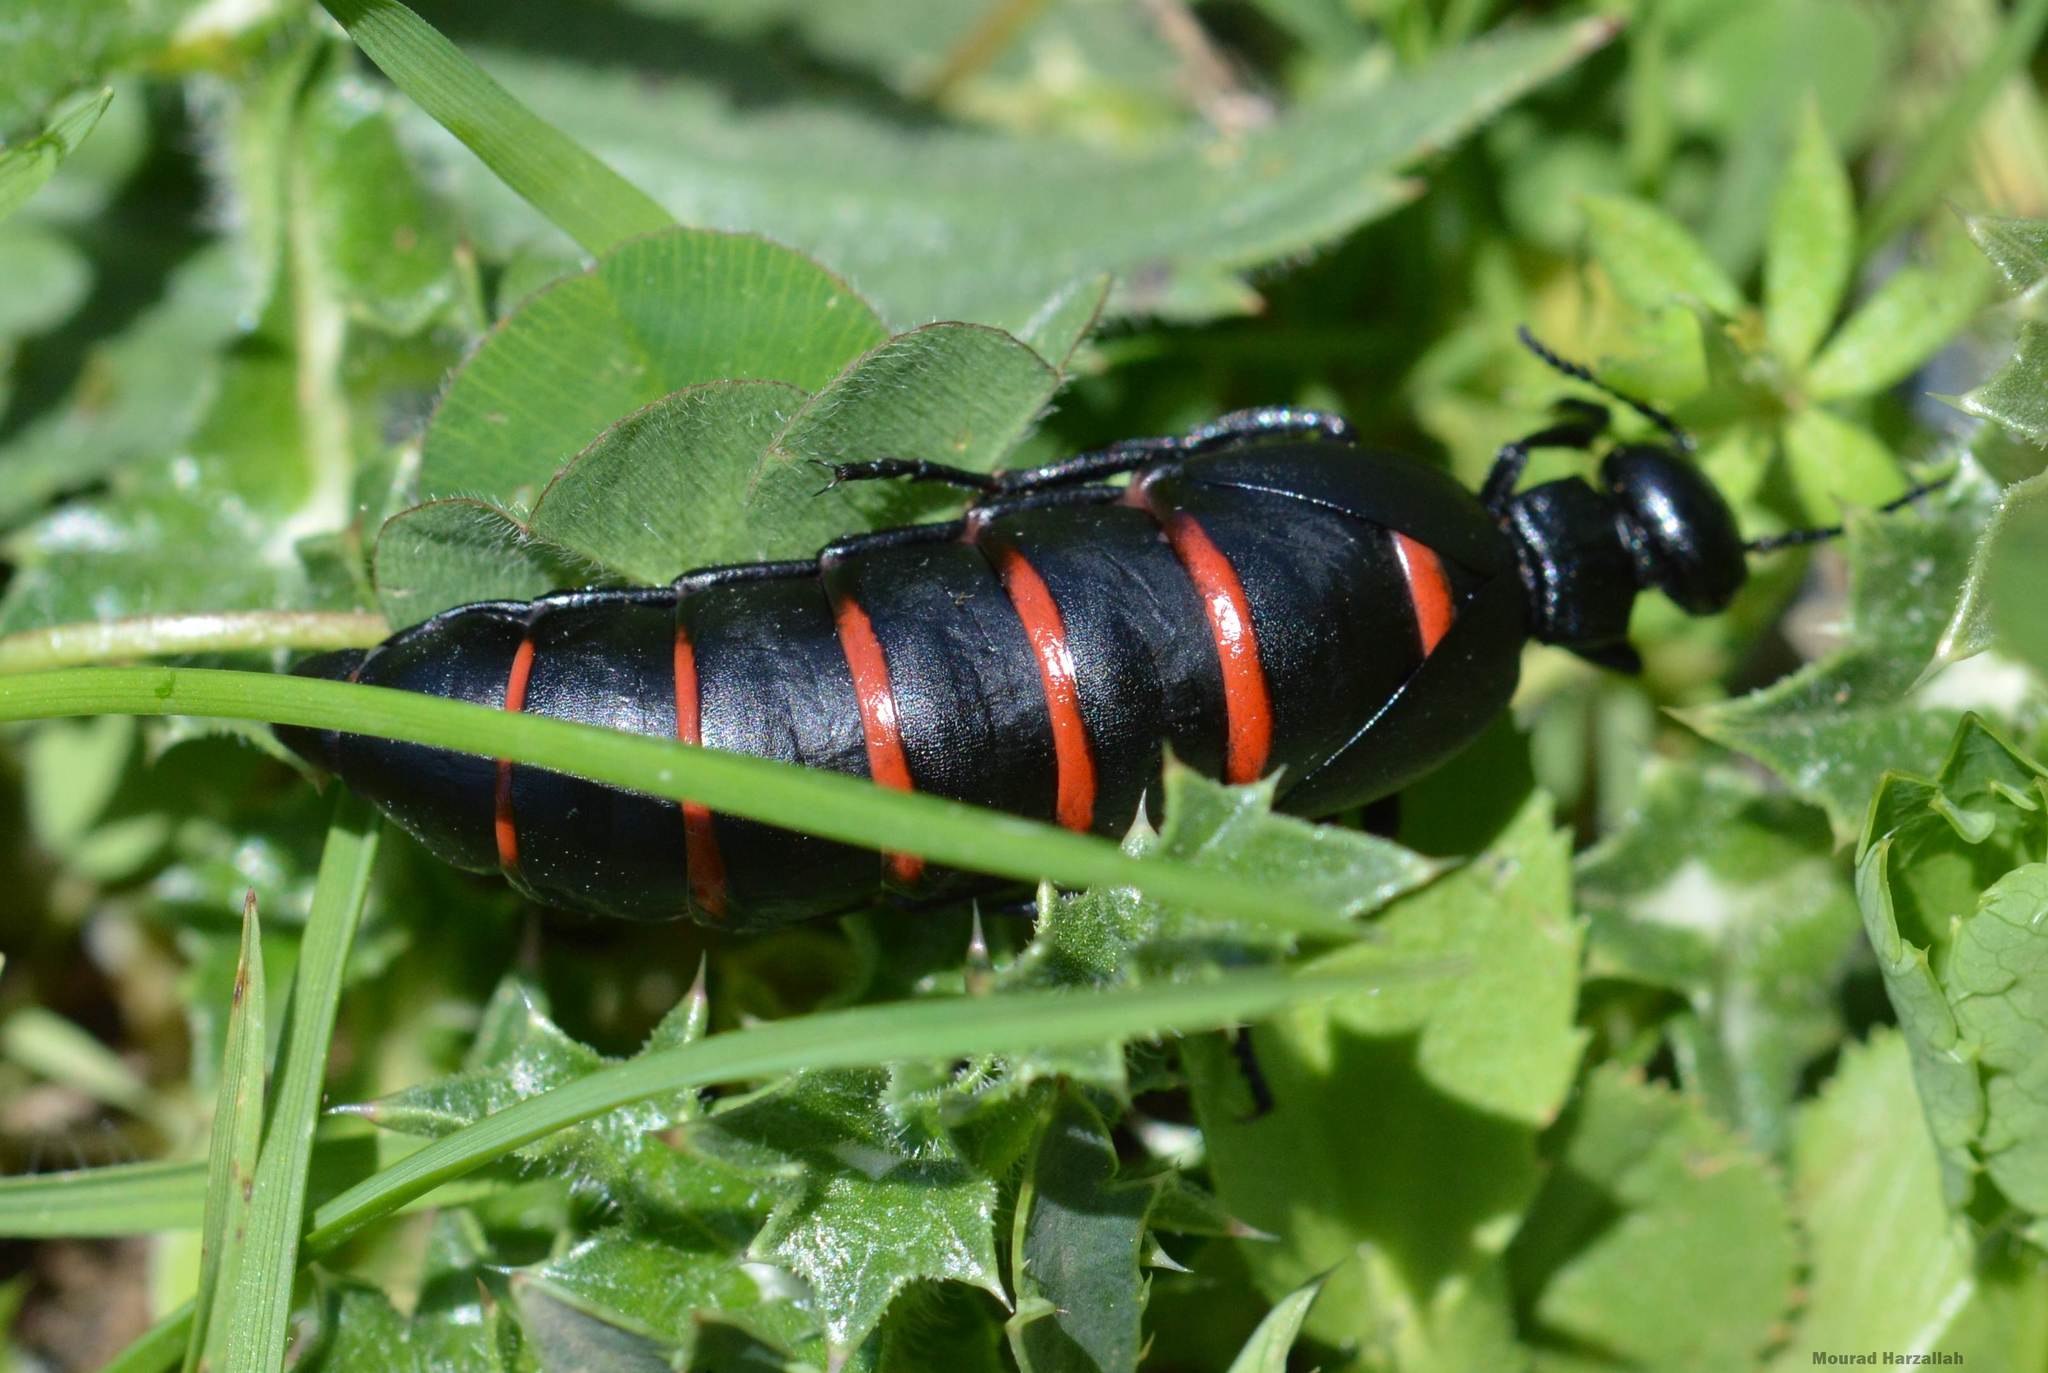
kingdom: Animalia
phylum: Arthropoda
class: Insecta
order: Coleoptera
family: Meloidae
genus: Berberomeloe
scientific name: Berberomeloe majalis
